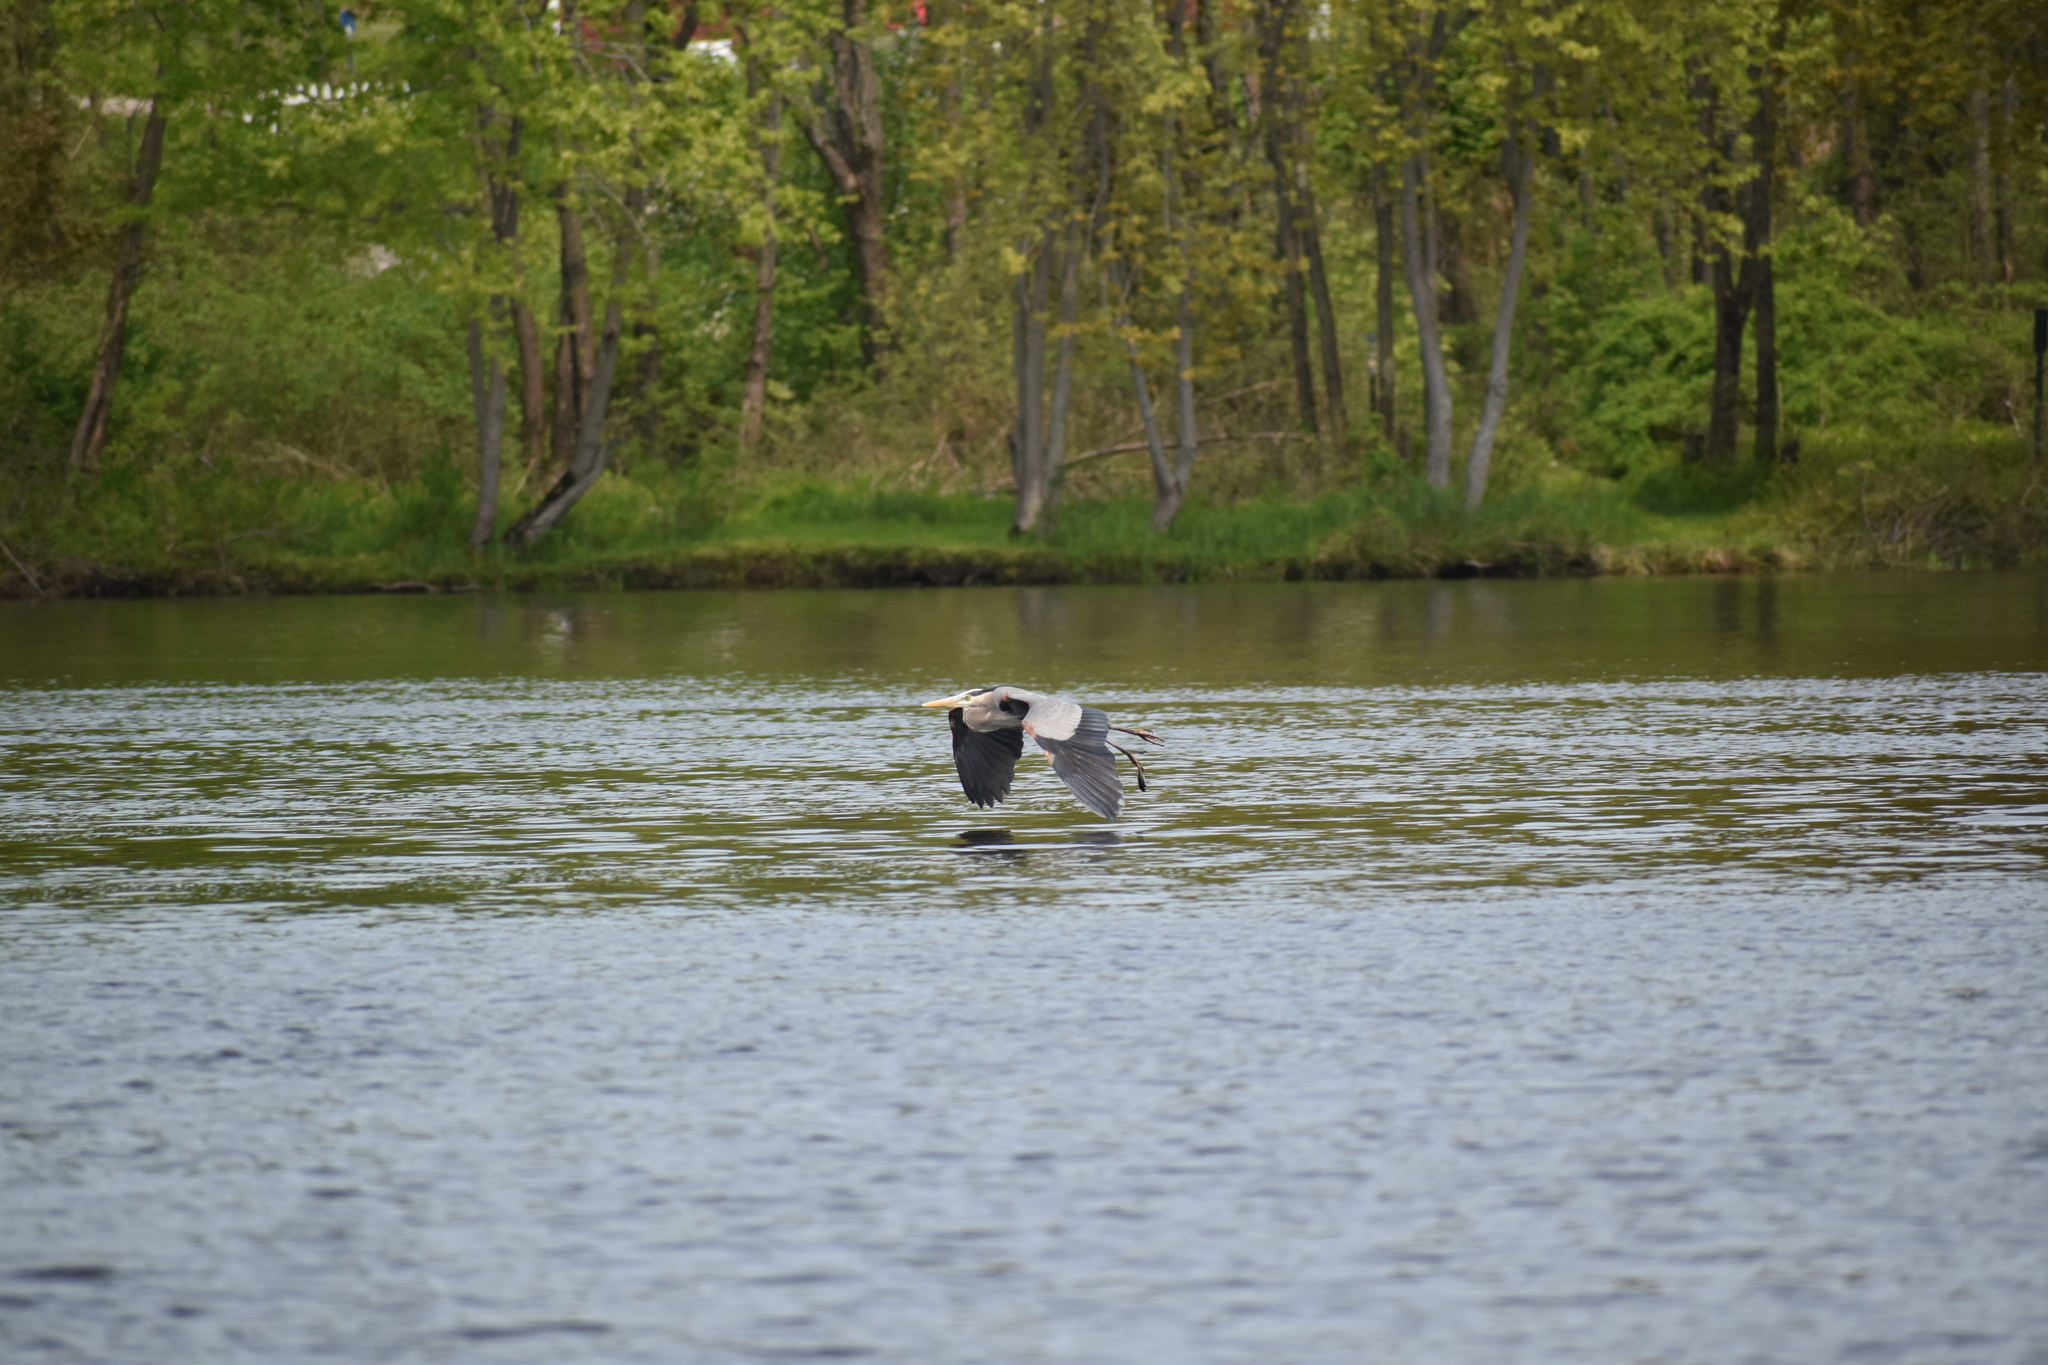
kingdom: Animalia
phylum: Chordata
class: Aves
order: Pelecaniformes
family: Ardeidae
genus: Ardea
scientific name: Ardea herodias
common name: Great blue heron
